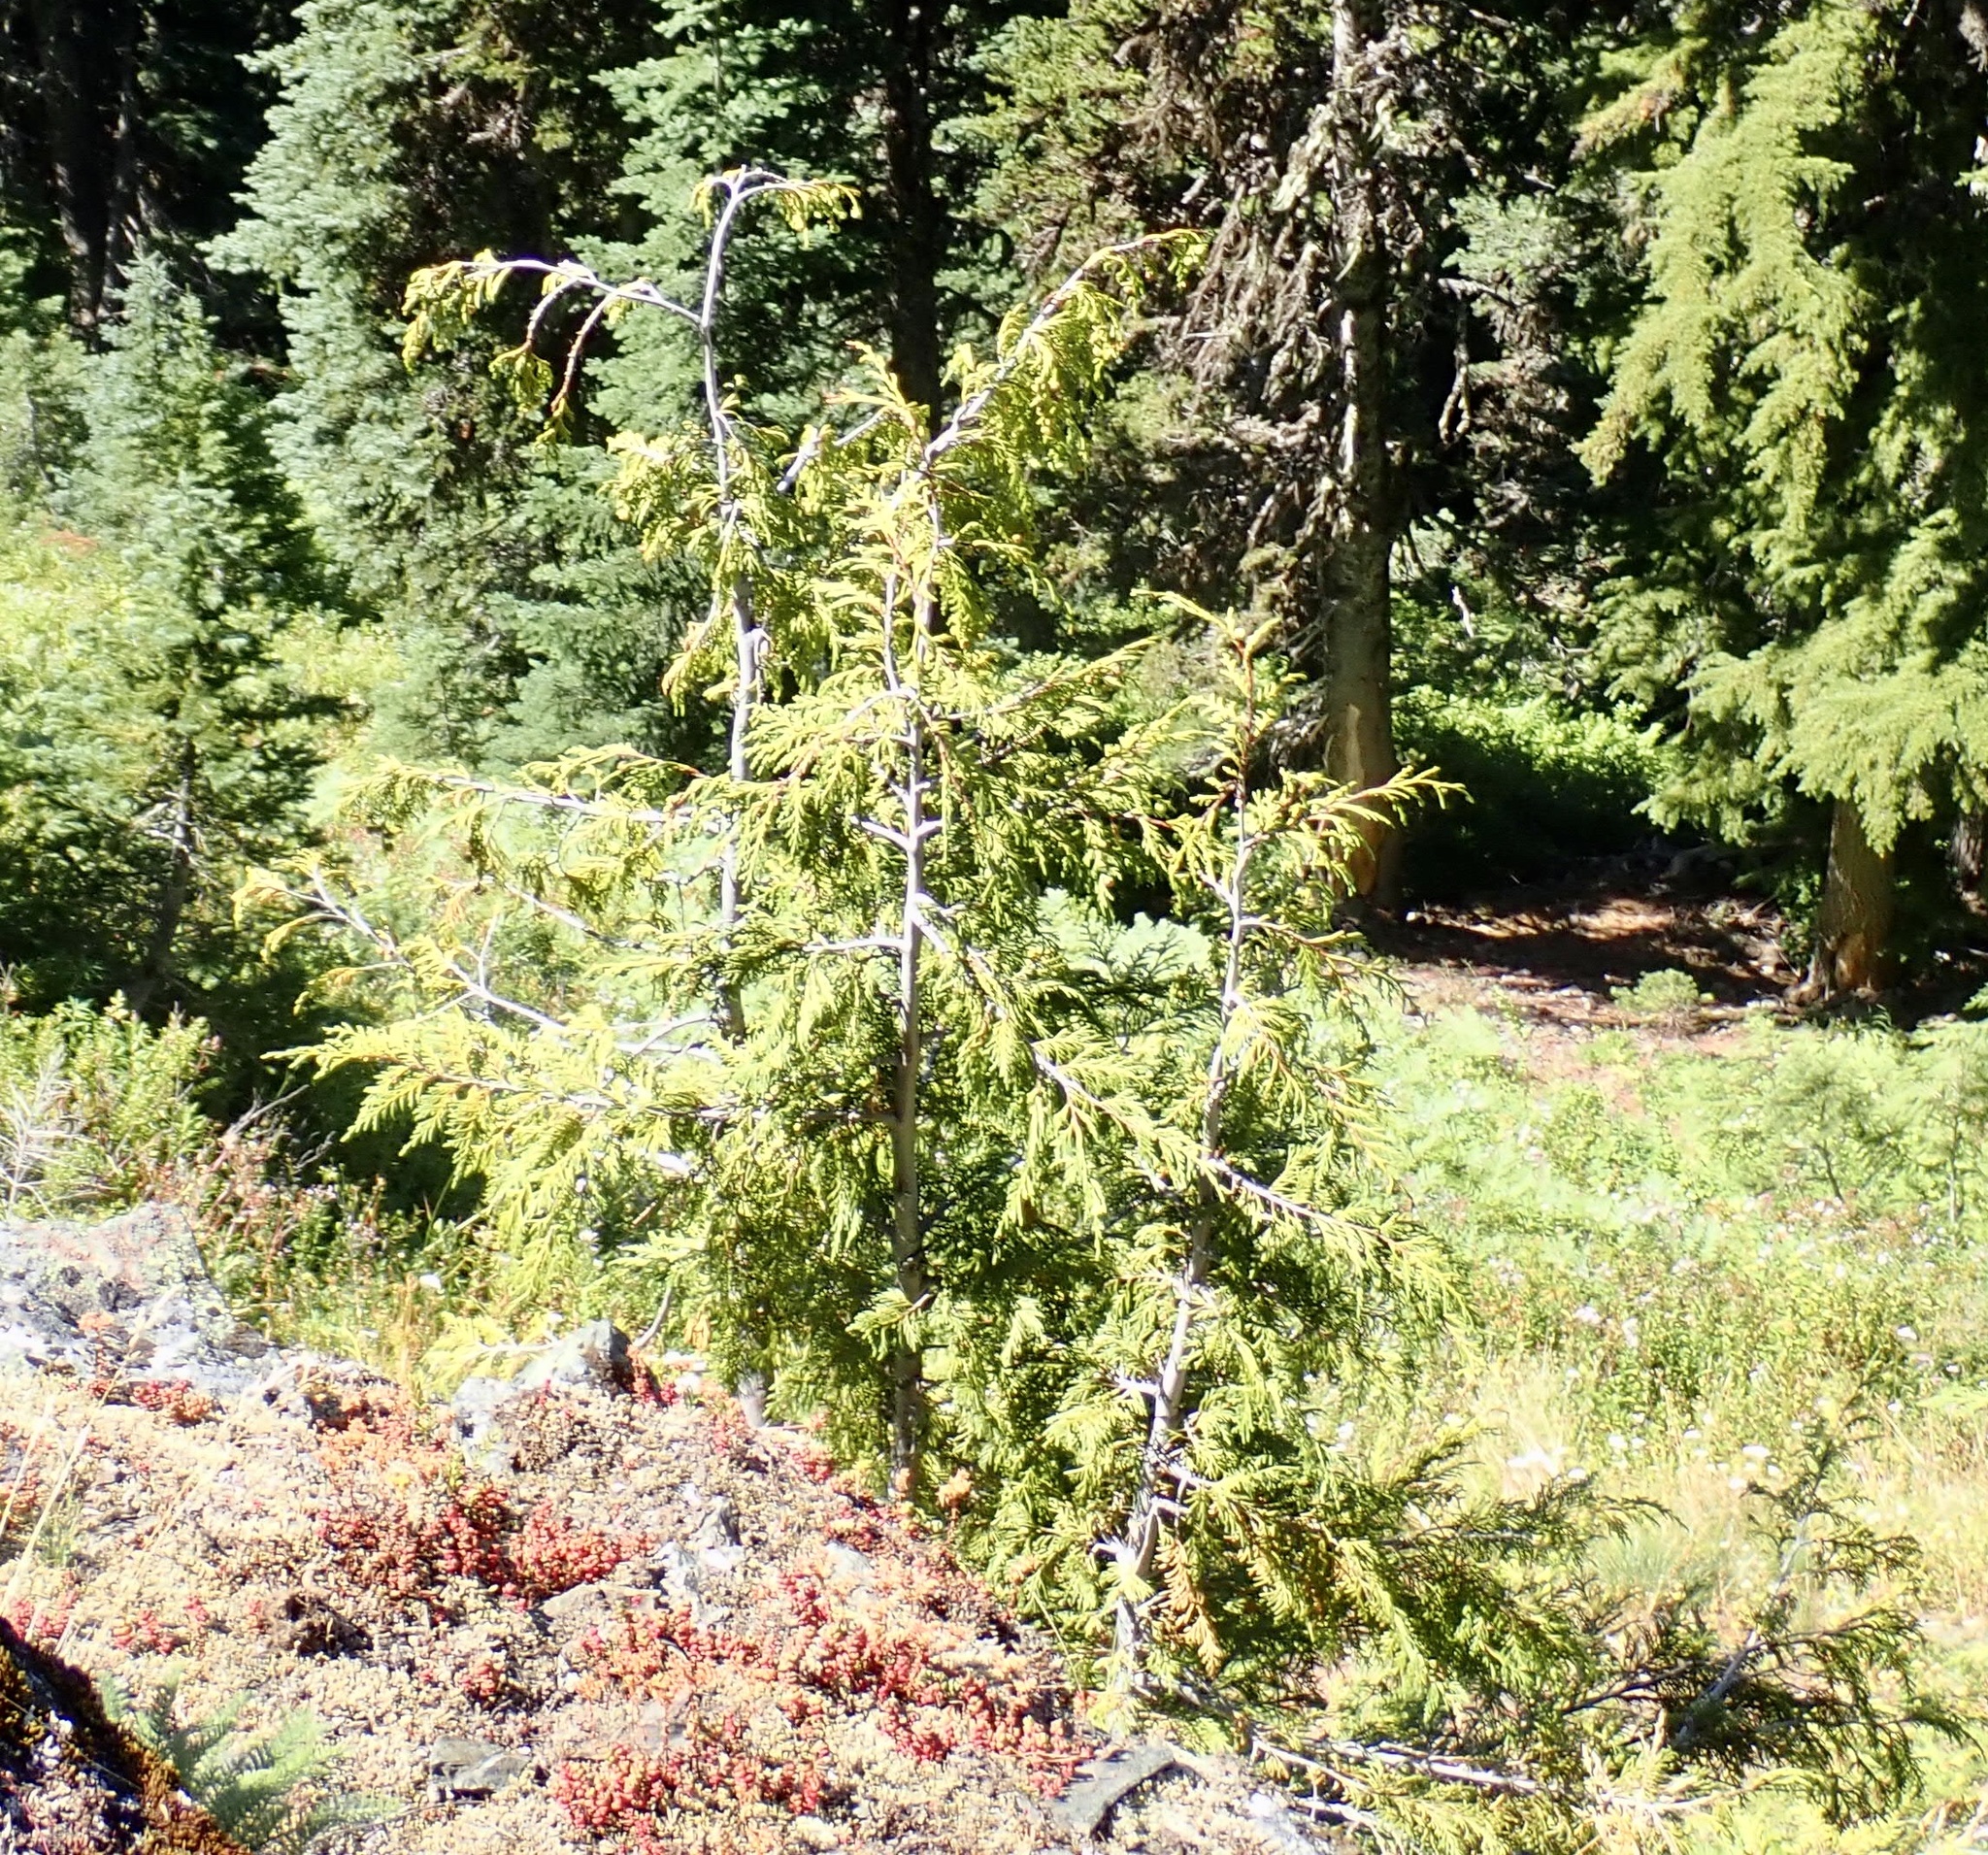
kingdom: Plantae
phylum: Tracheophyta
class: Pinopsida
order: Pinales
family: Cupressaceae
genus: Xanthocyparis
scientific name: Xanthocyparis nootkatensis
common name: Nootka cypress
